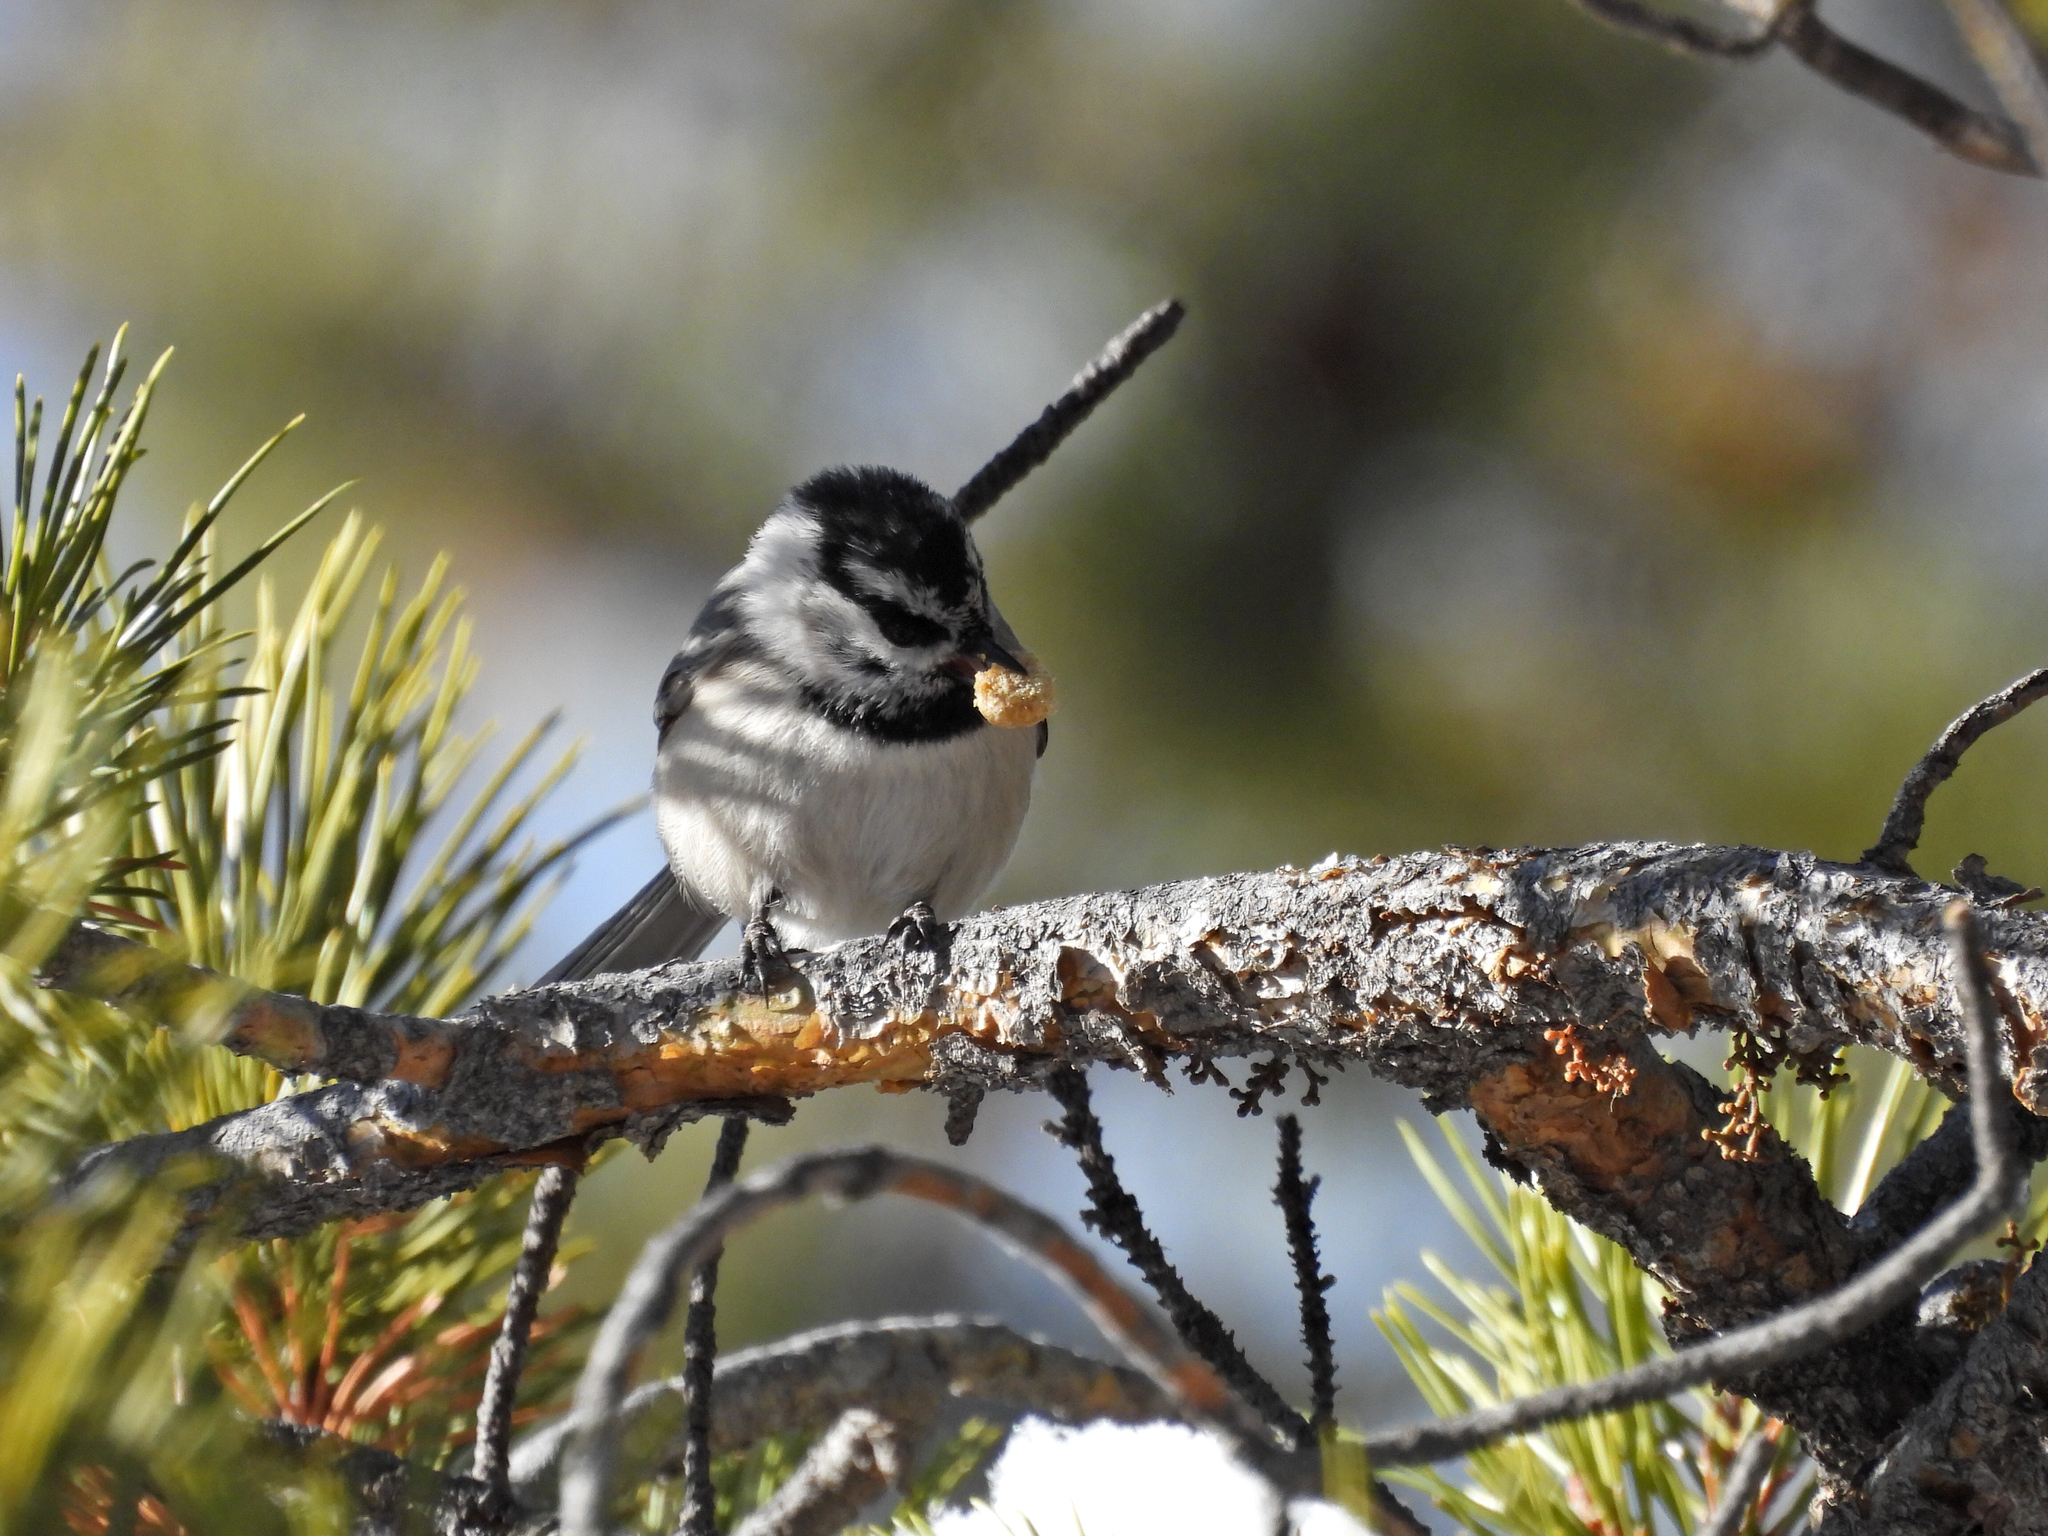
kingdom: Animalia
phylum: Chordata
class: Aves
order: Passeriformes
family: Paridae
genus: Poecile
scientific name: Poecile gambeli
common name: Mountain chickadee
